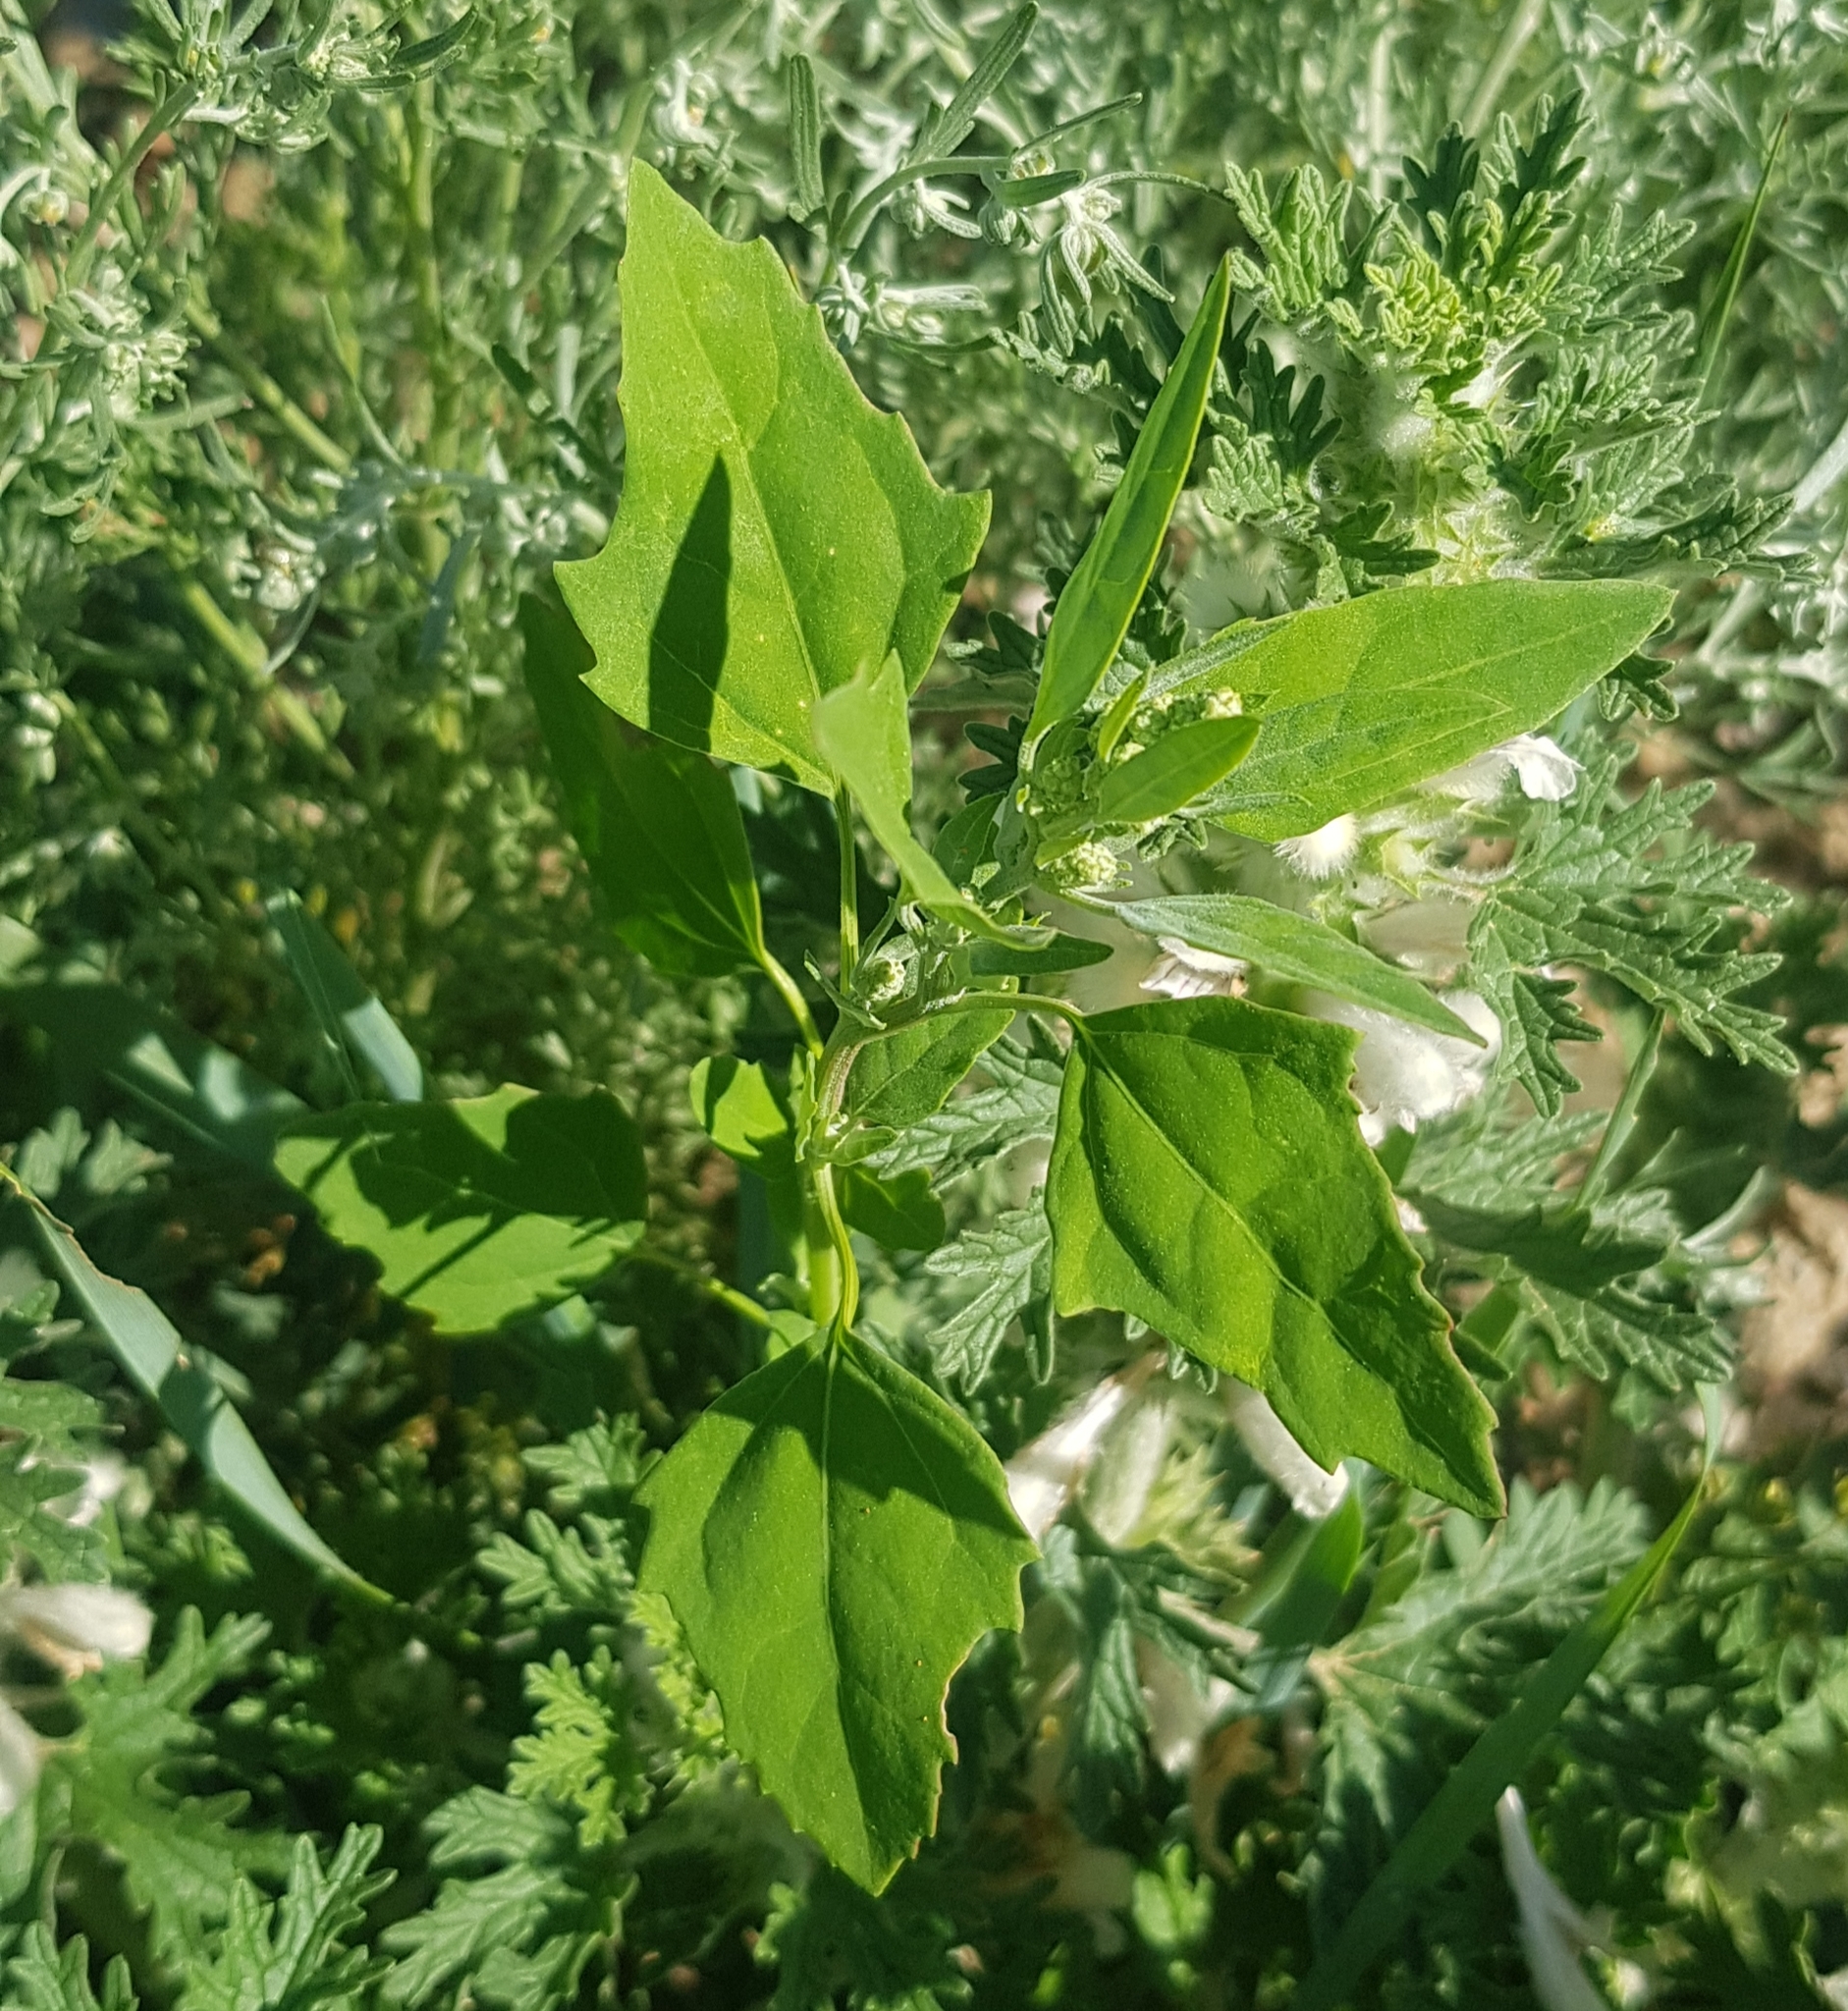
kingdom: Plantae
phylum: Tracheophyta
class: Magnoliopsida
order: Caryophyllales
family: Amaranthaceae
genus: Chenopodium
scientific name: Chenopodium album
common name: Fat-hen
